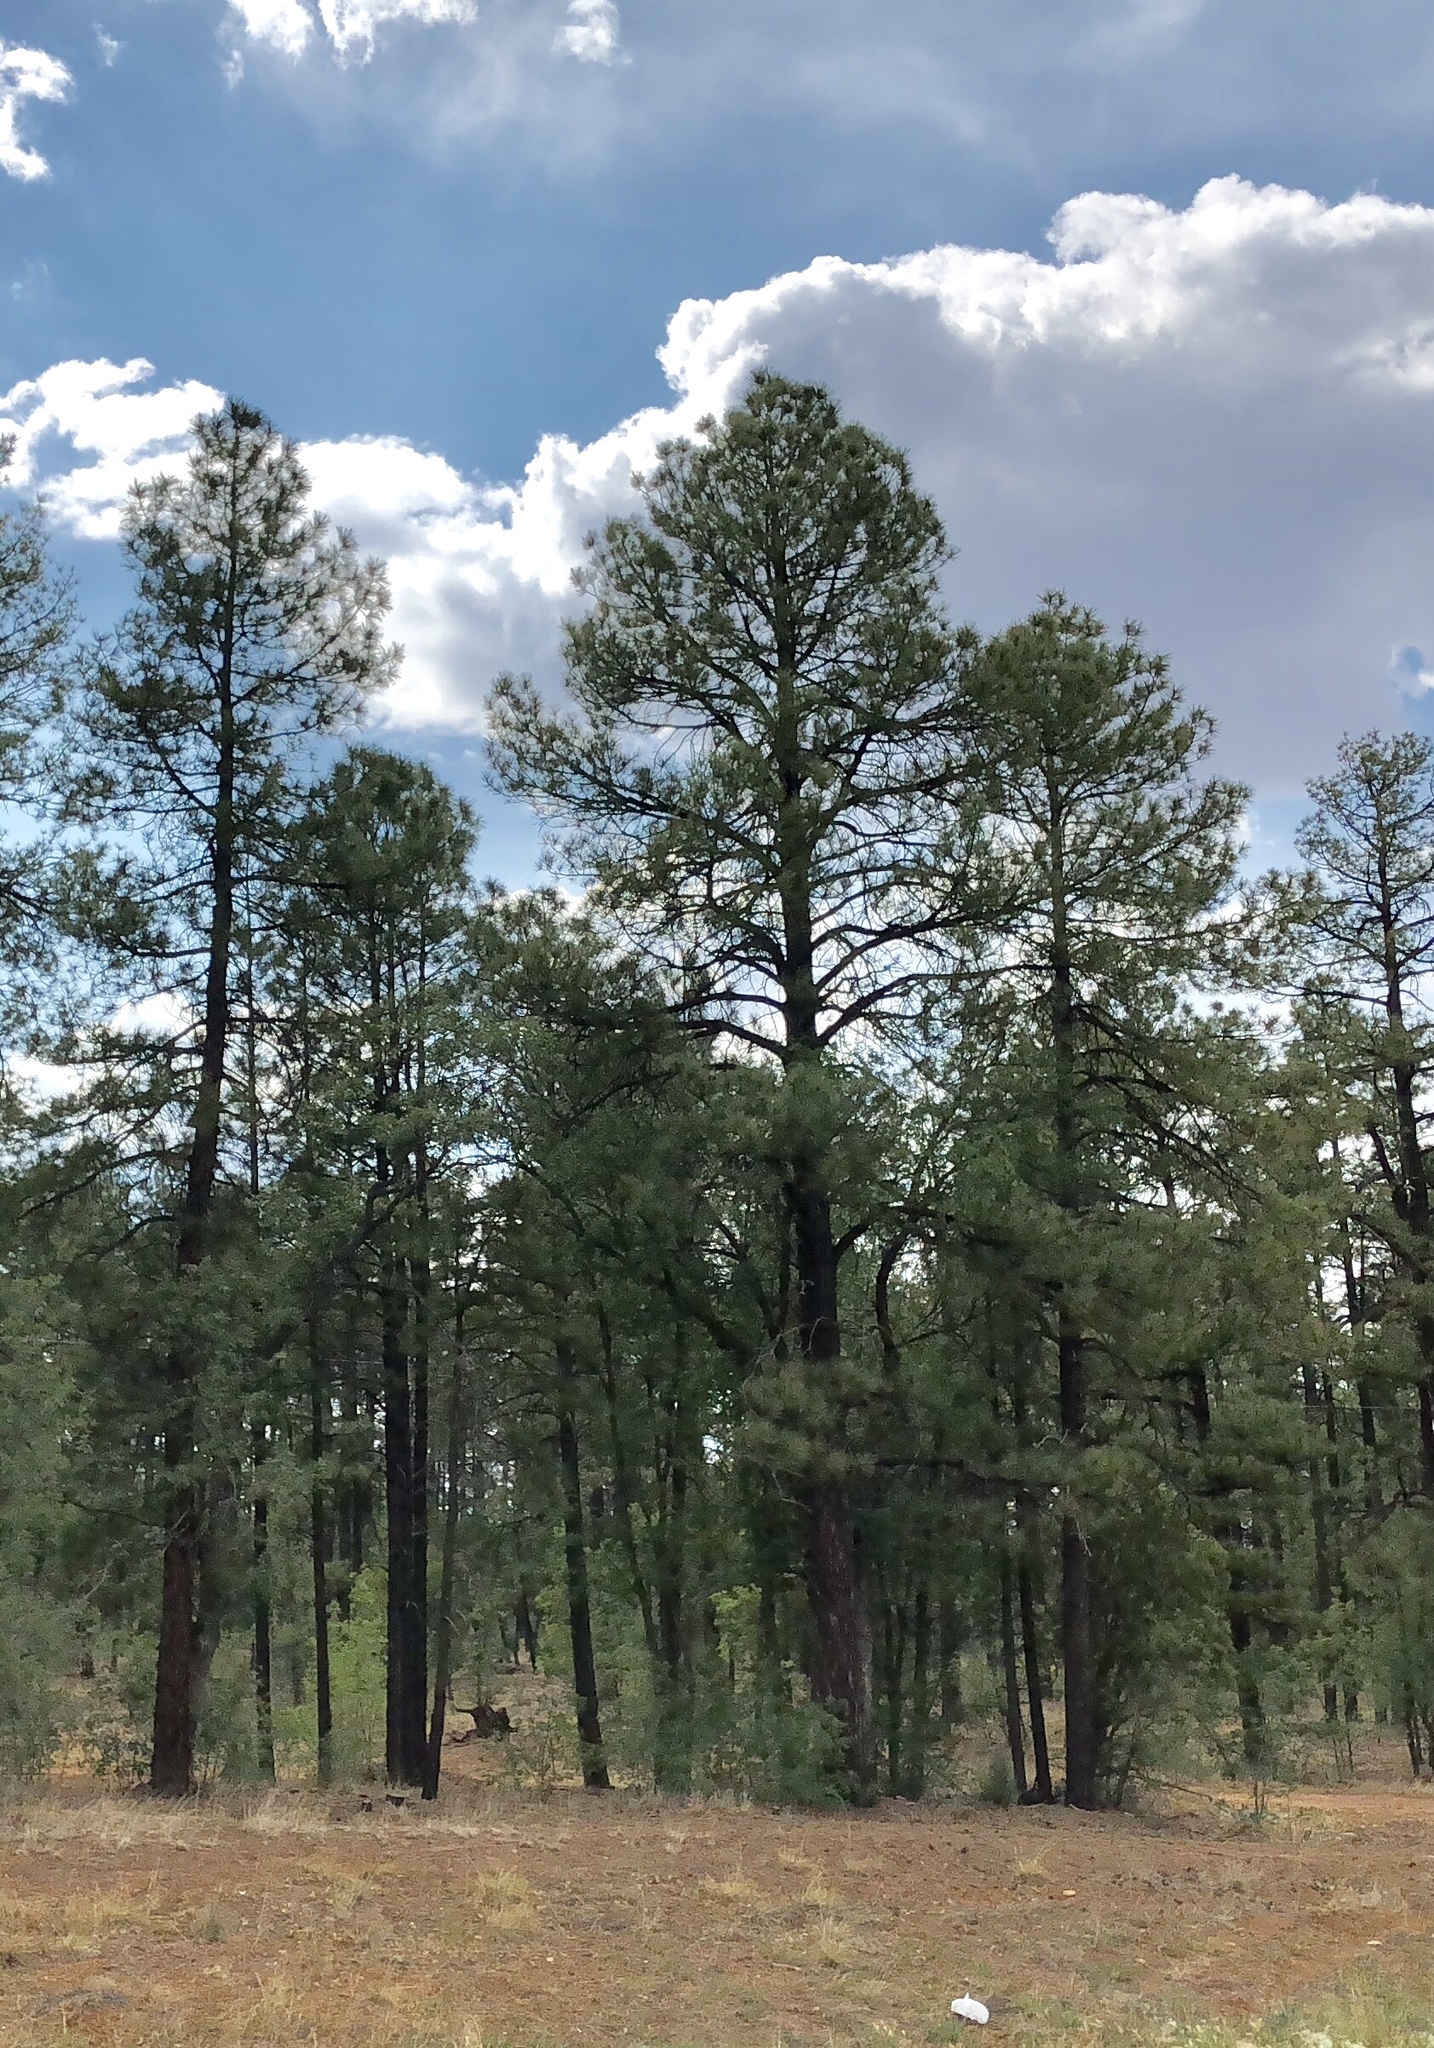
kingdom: Plantae
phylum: Tracheophyta
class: Pinopsida
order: Pinales
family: Pinaceae
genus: Pinus
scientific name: Pinus ponderosa
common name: Western yellow-pine
